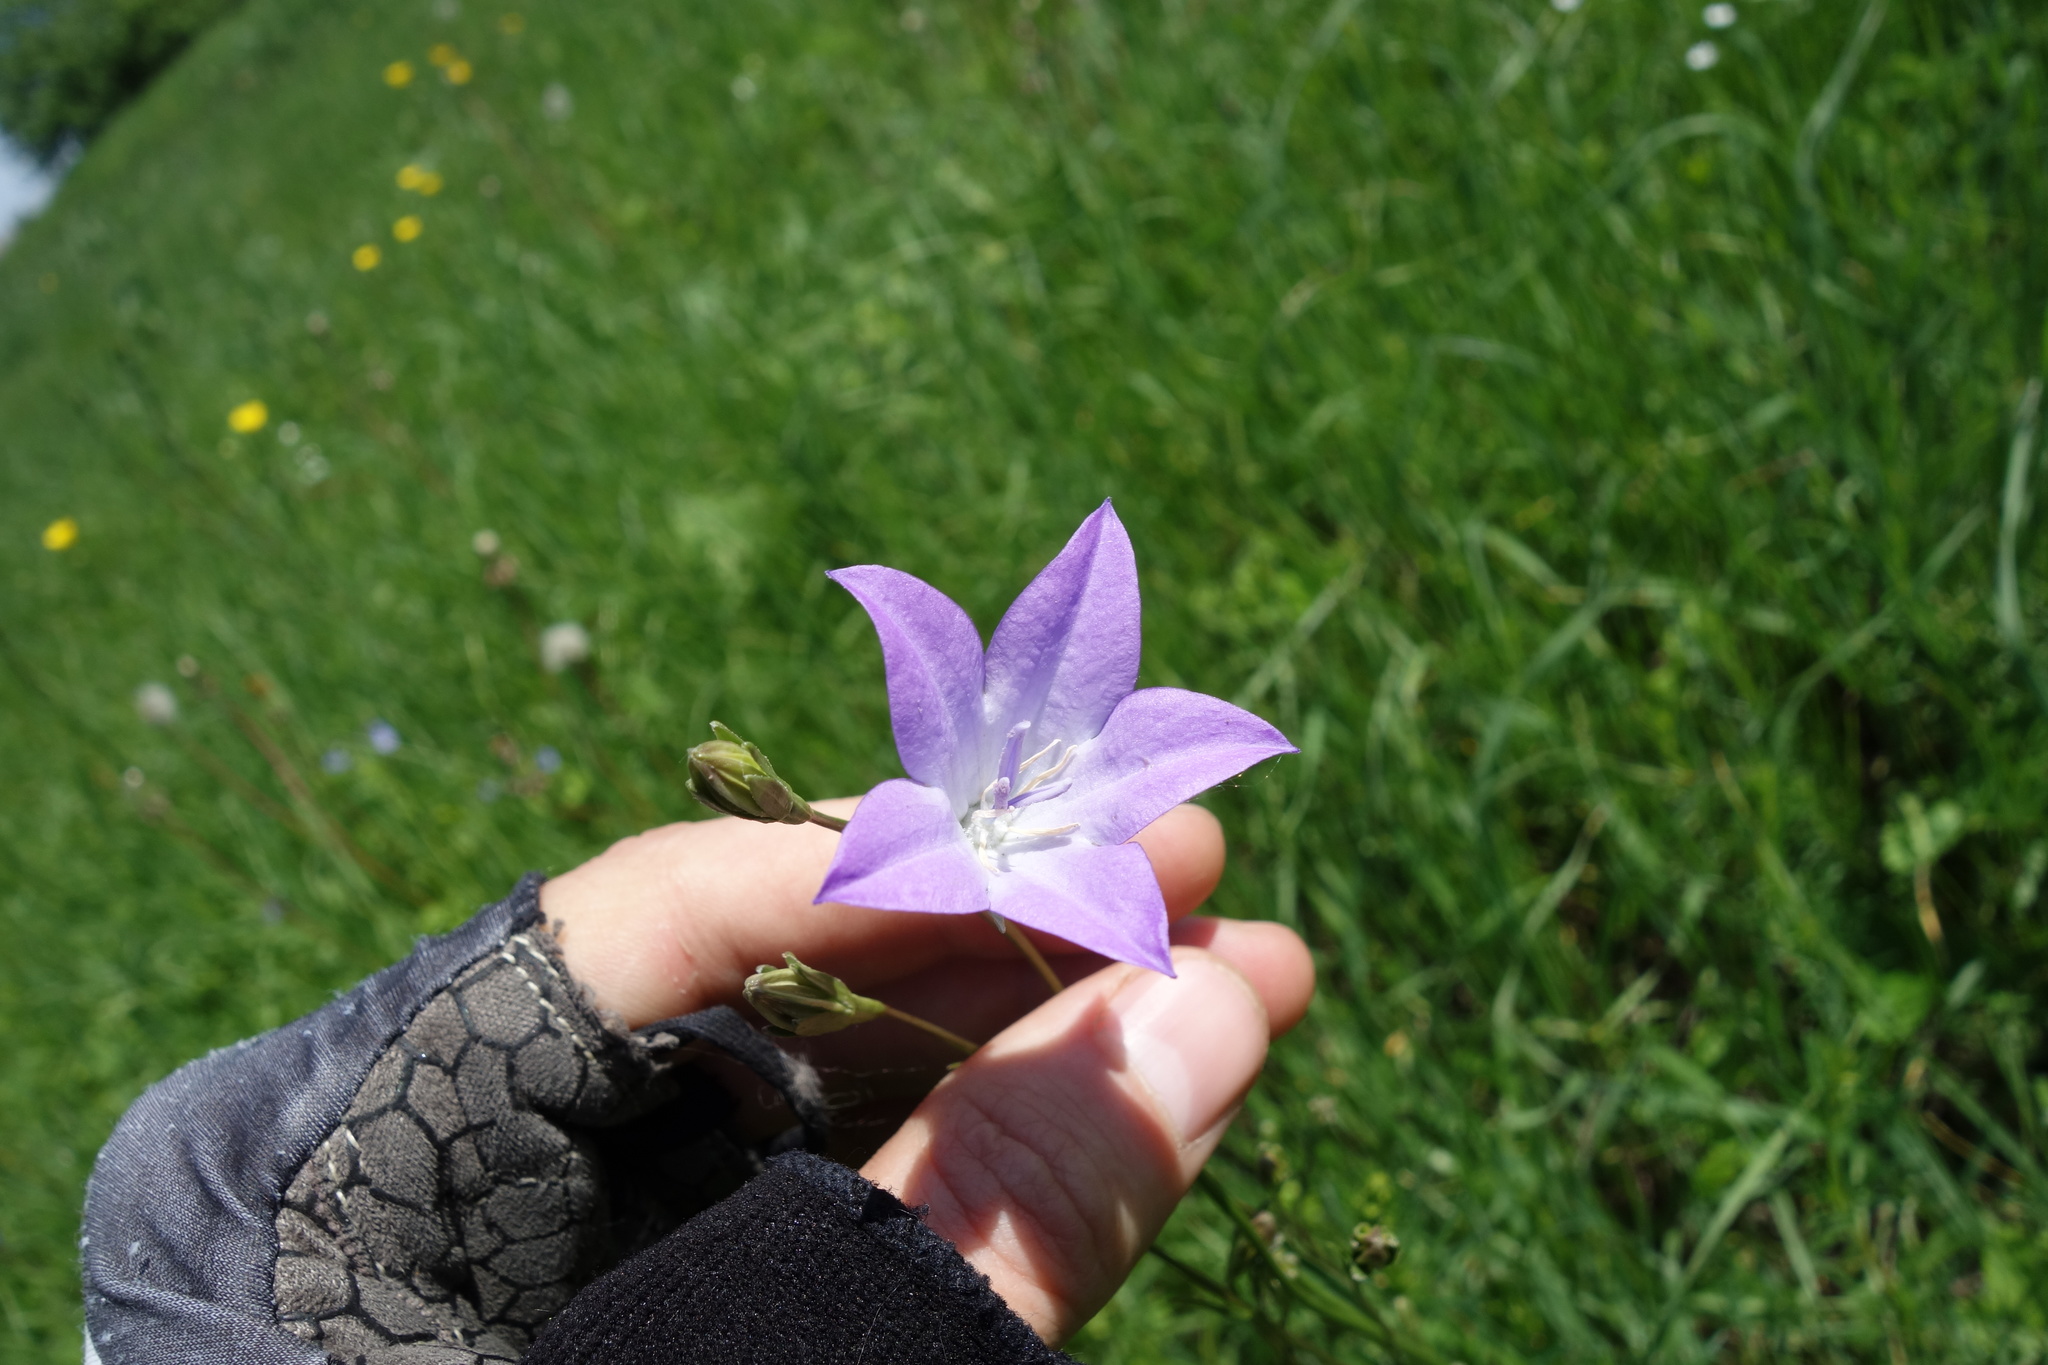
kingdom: Plantae
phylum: Tracheophyta
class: Magnoliopsida
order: Asterales
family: Campanulaceae
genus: Campanula
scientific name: Campanula stevenii
